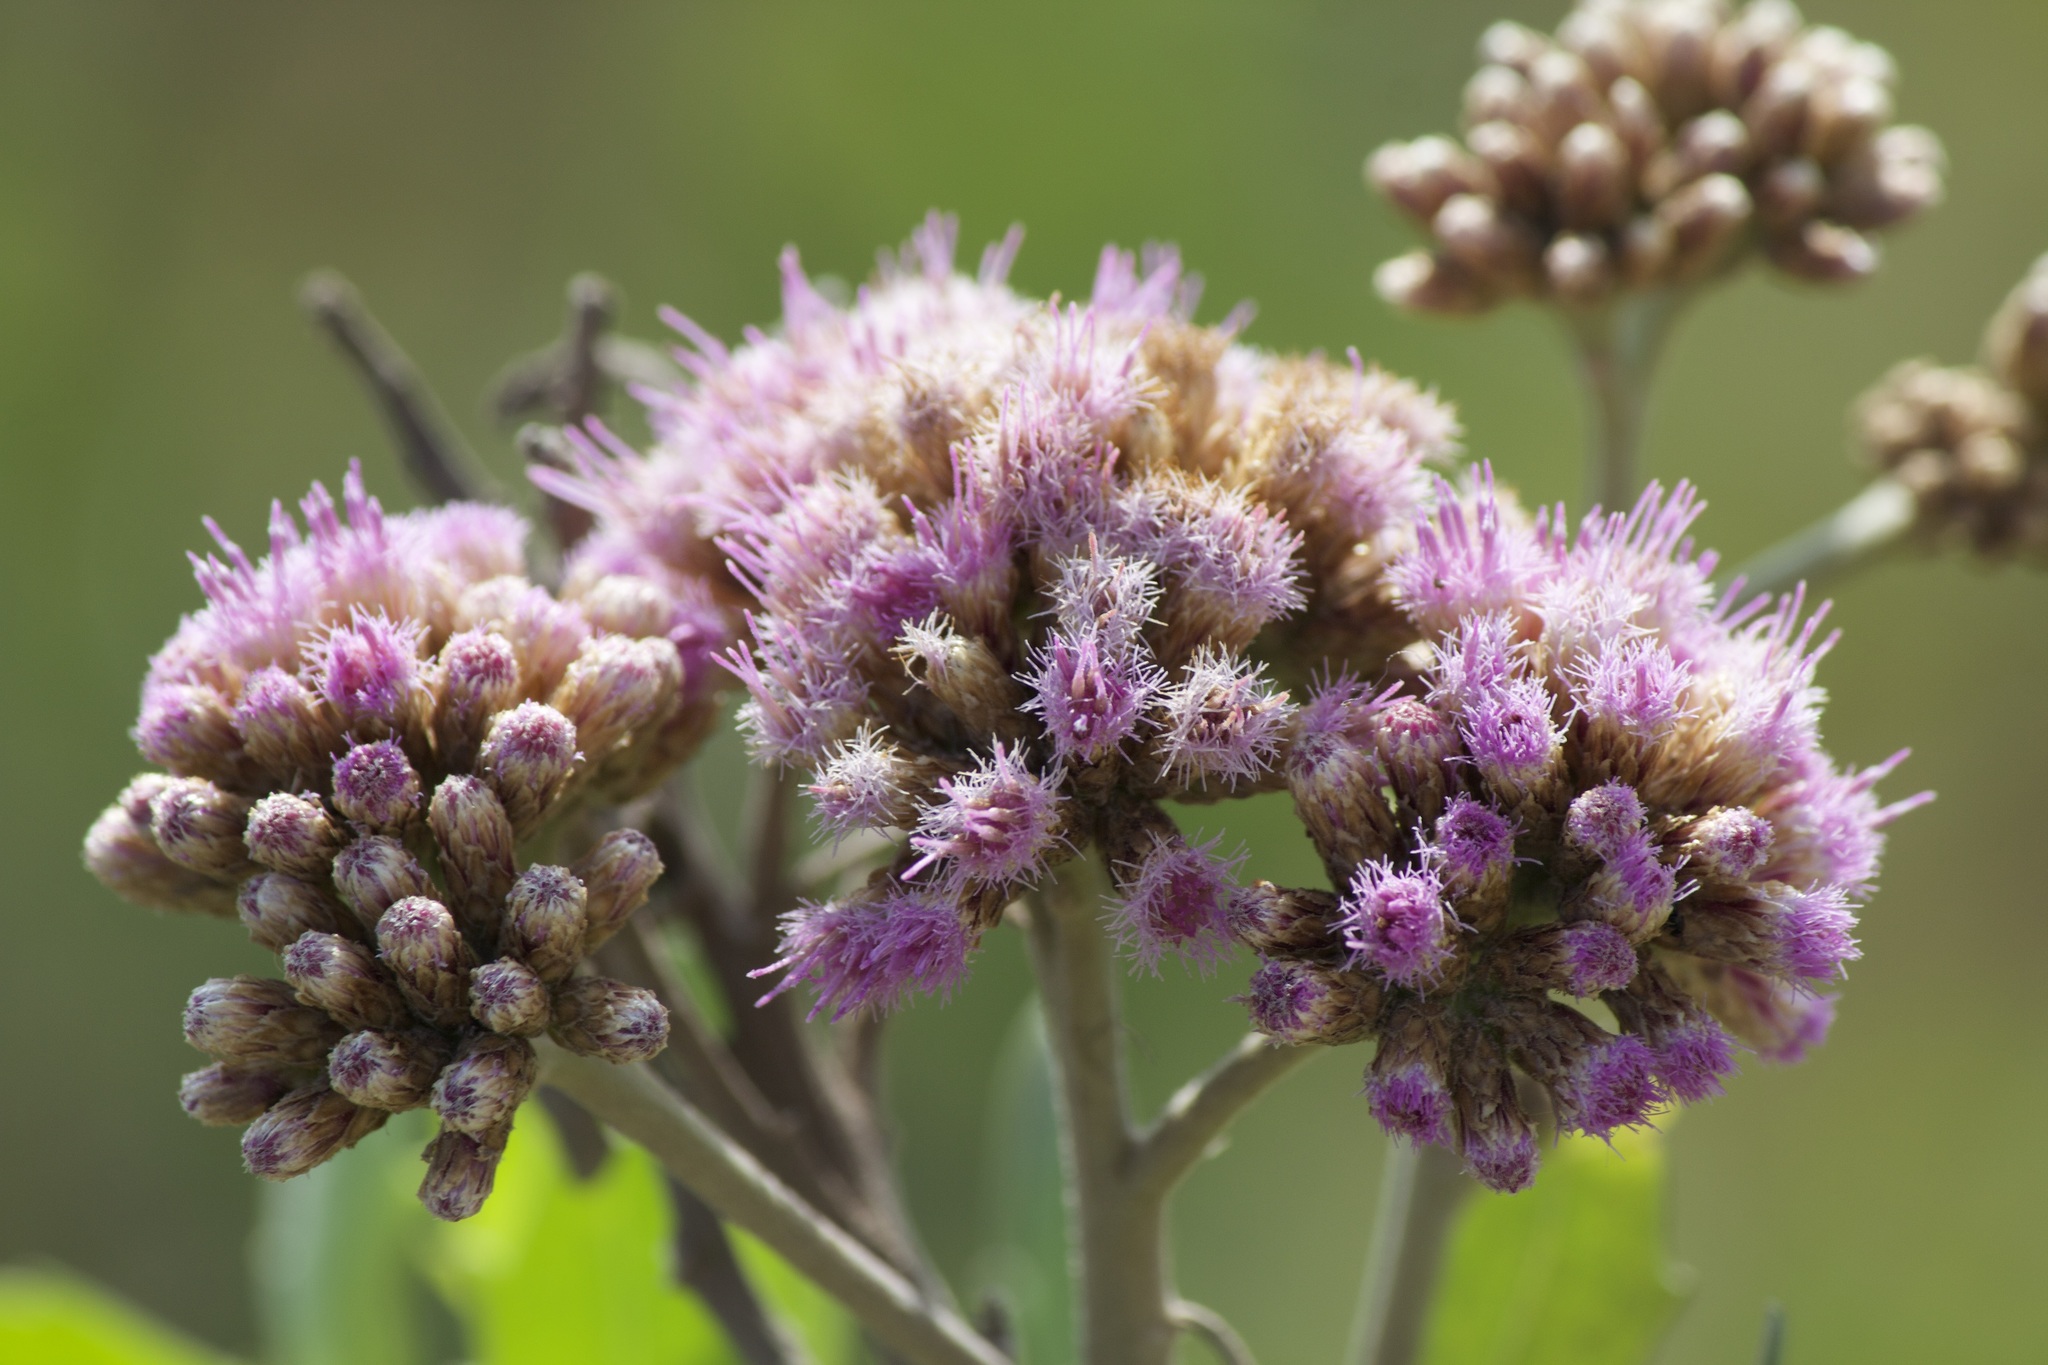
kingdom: Plantae
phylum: Tracheophyta
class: Magnoliopsida
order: Asterales
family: Asteraceae
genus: Tessaria
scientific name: Tessaria absinthioides
